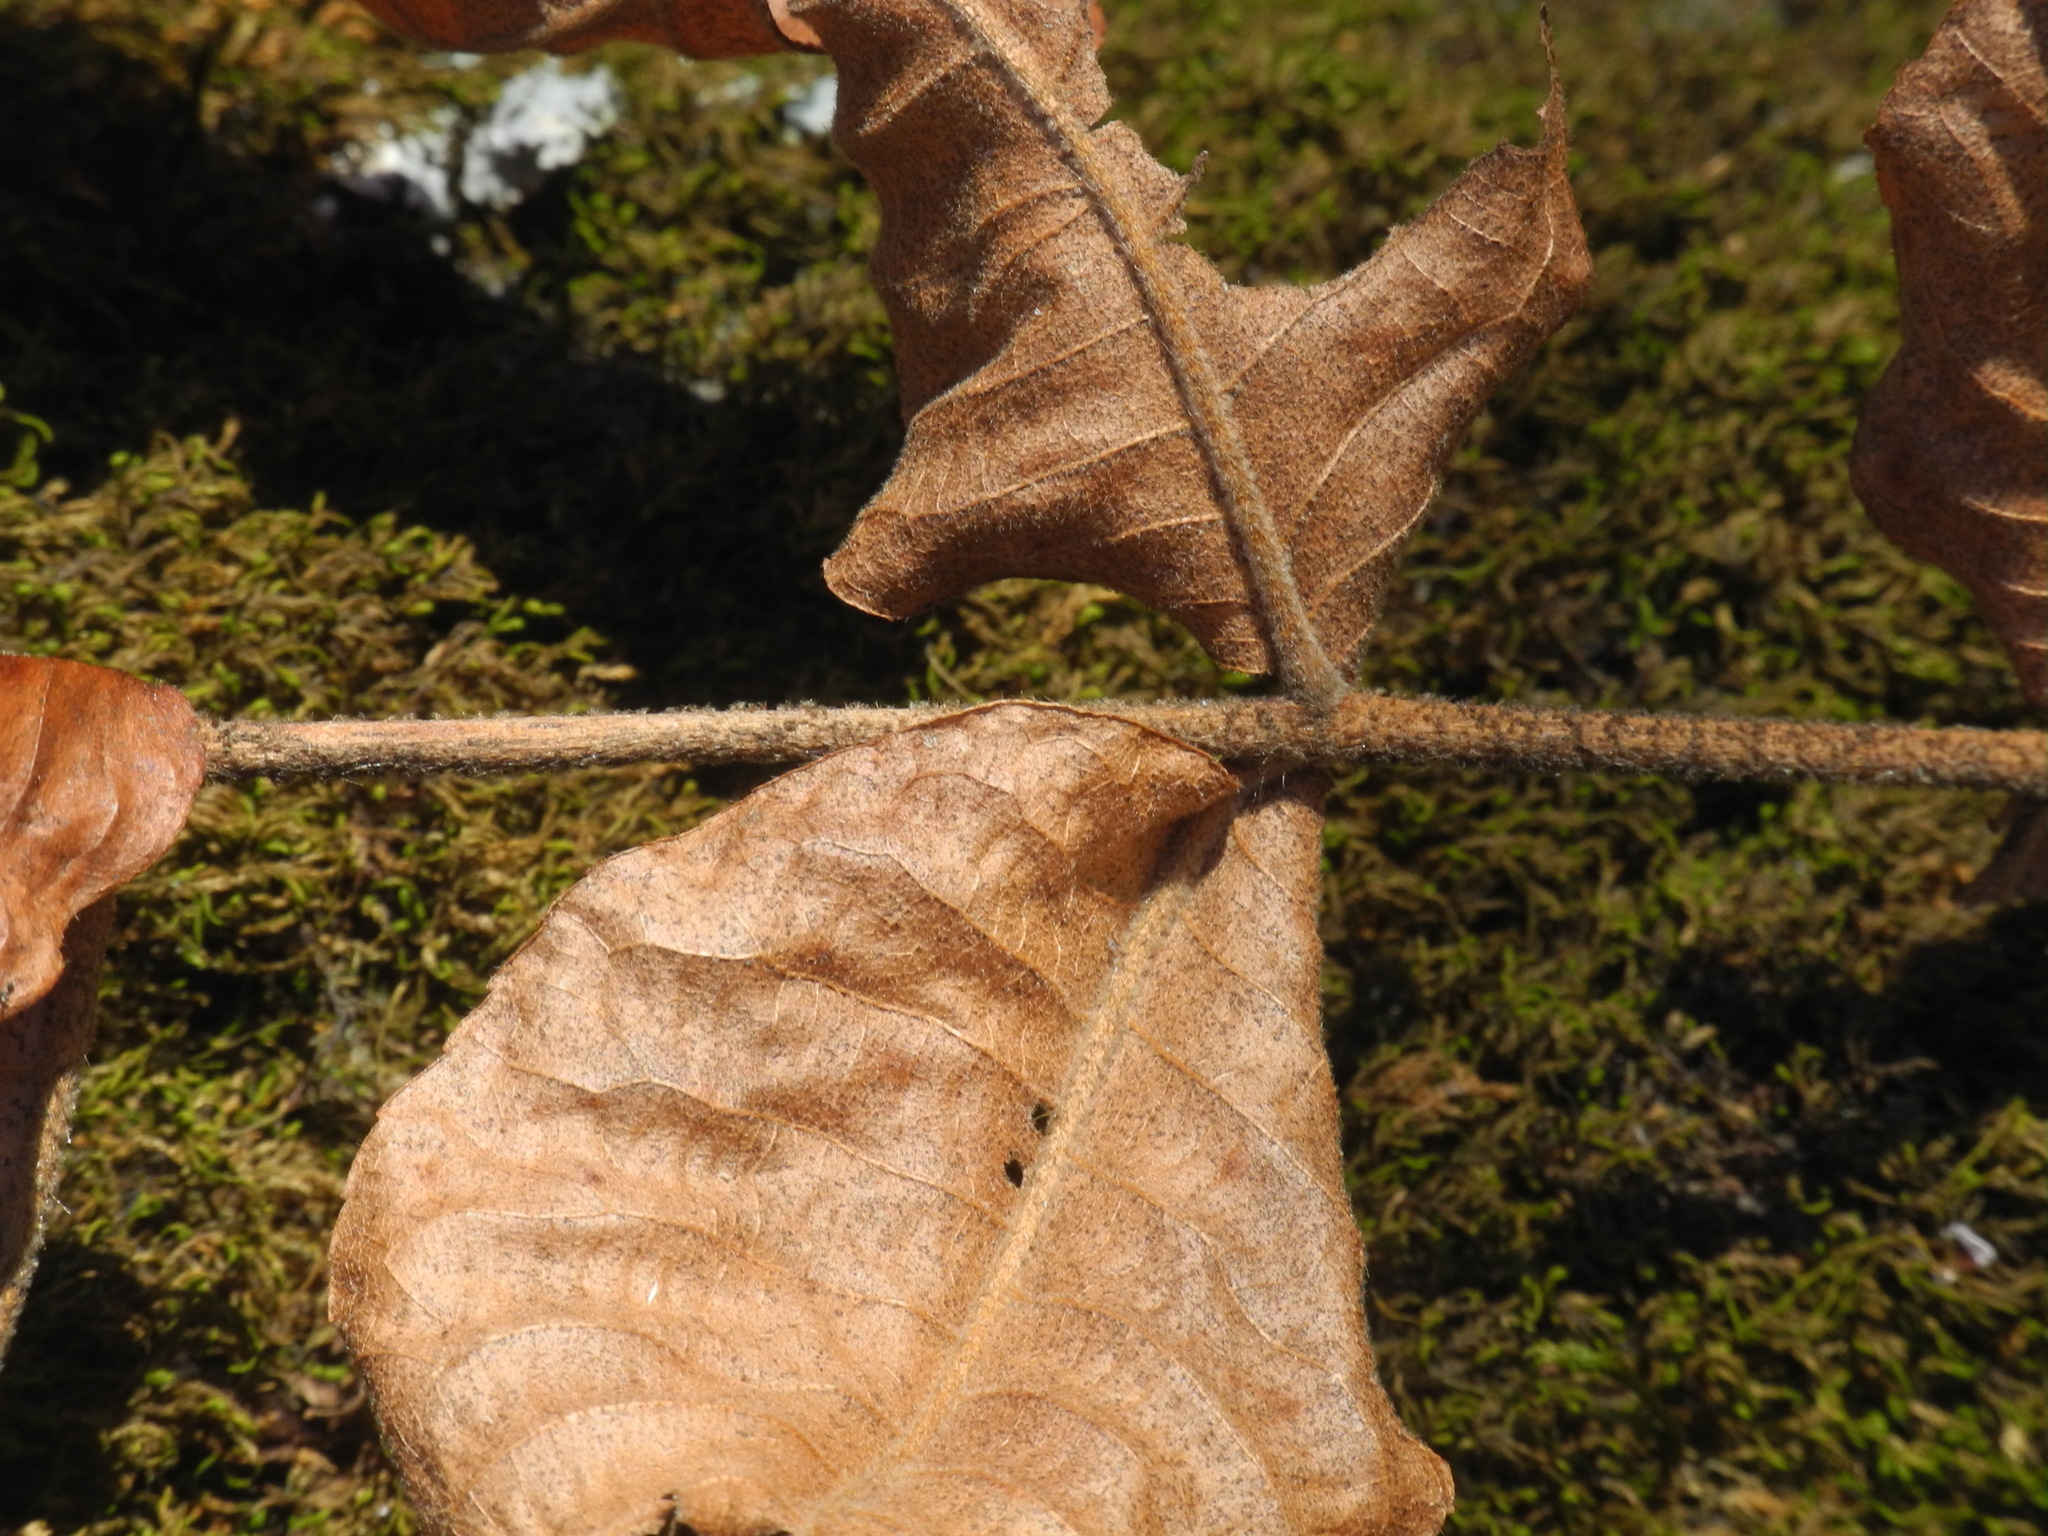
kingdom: Plantae
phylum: Tracheophyta
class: Magnoliopsida
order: Fagales
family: Juglandaceae
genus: Carya
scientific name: Carya alba
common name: Mockernut hickory
